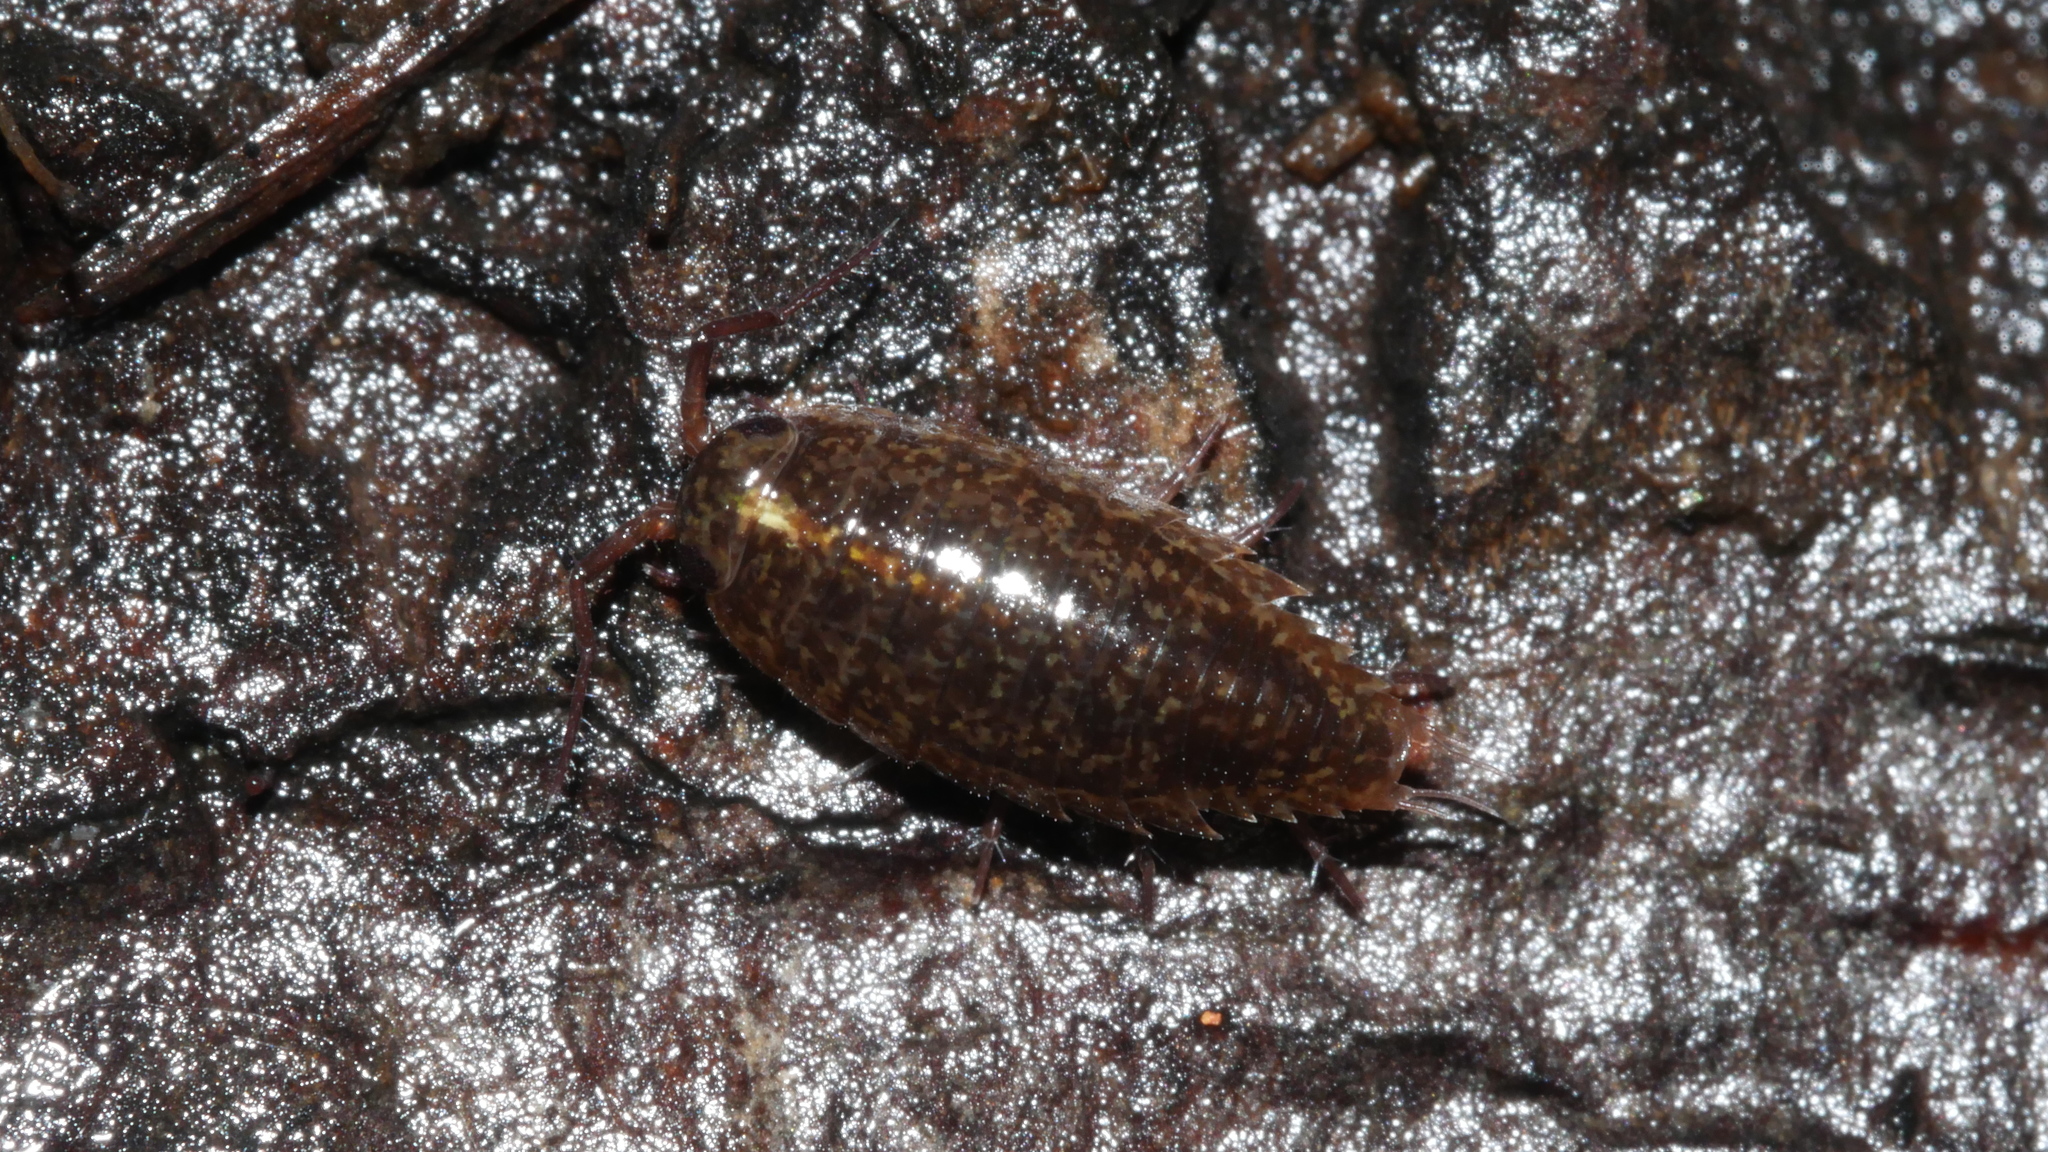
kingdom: Animalia
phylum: Arthropoda
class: Malacostraca
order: Isopoda
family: Ligiidae
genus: Ligidium
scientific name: Ligidium elrodii
